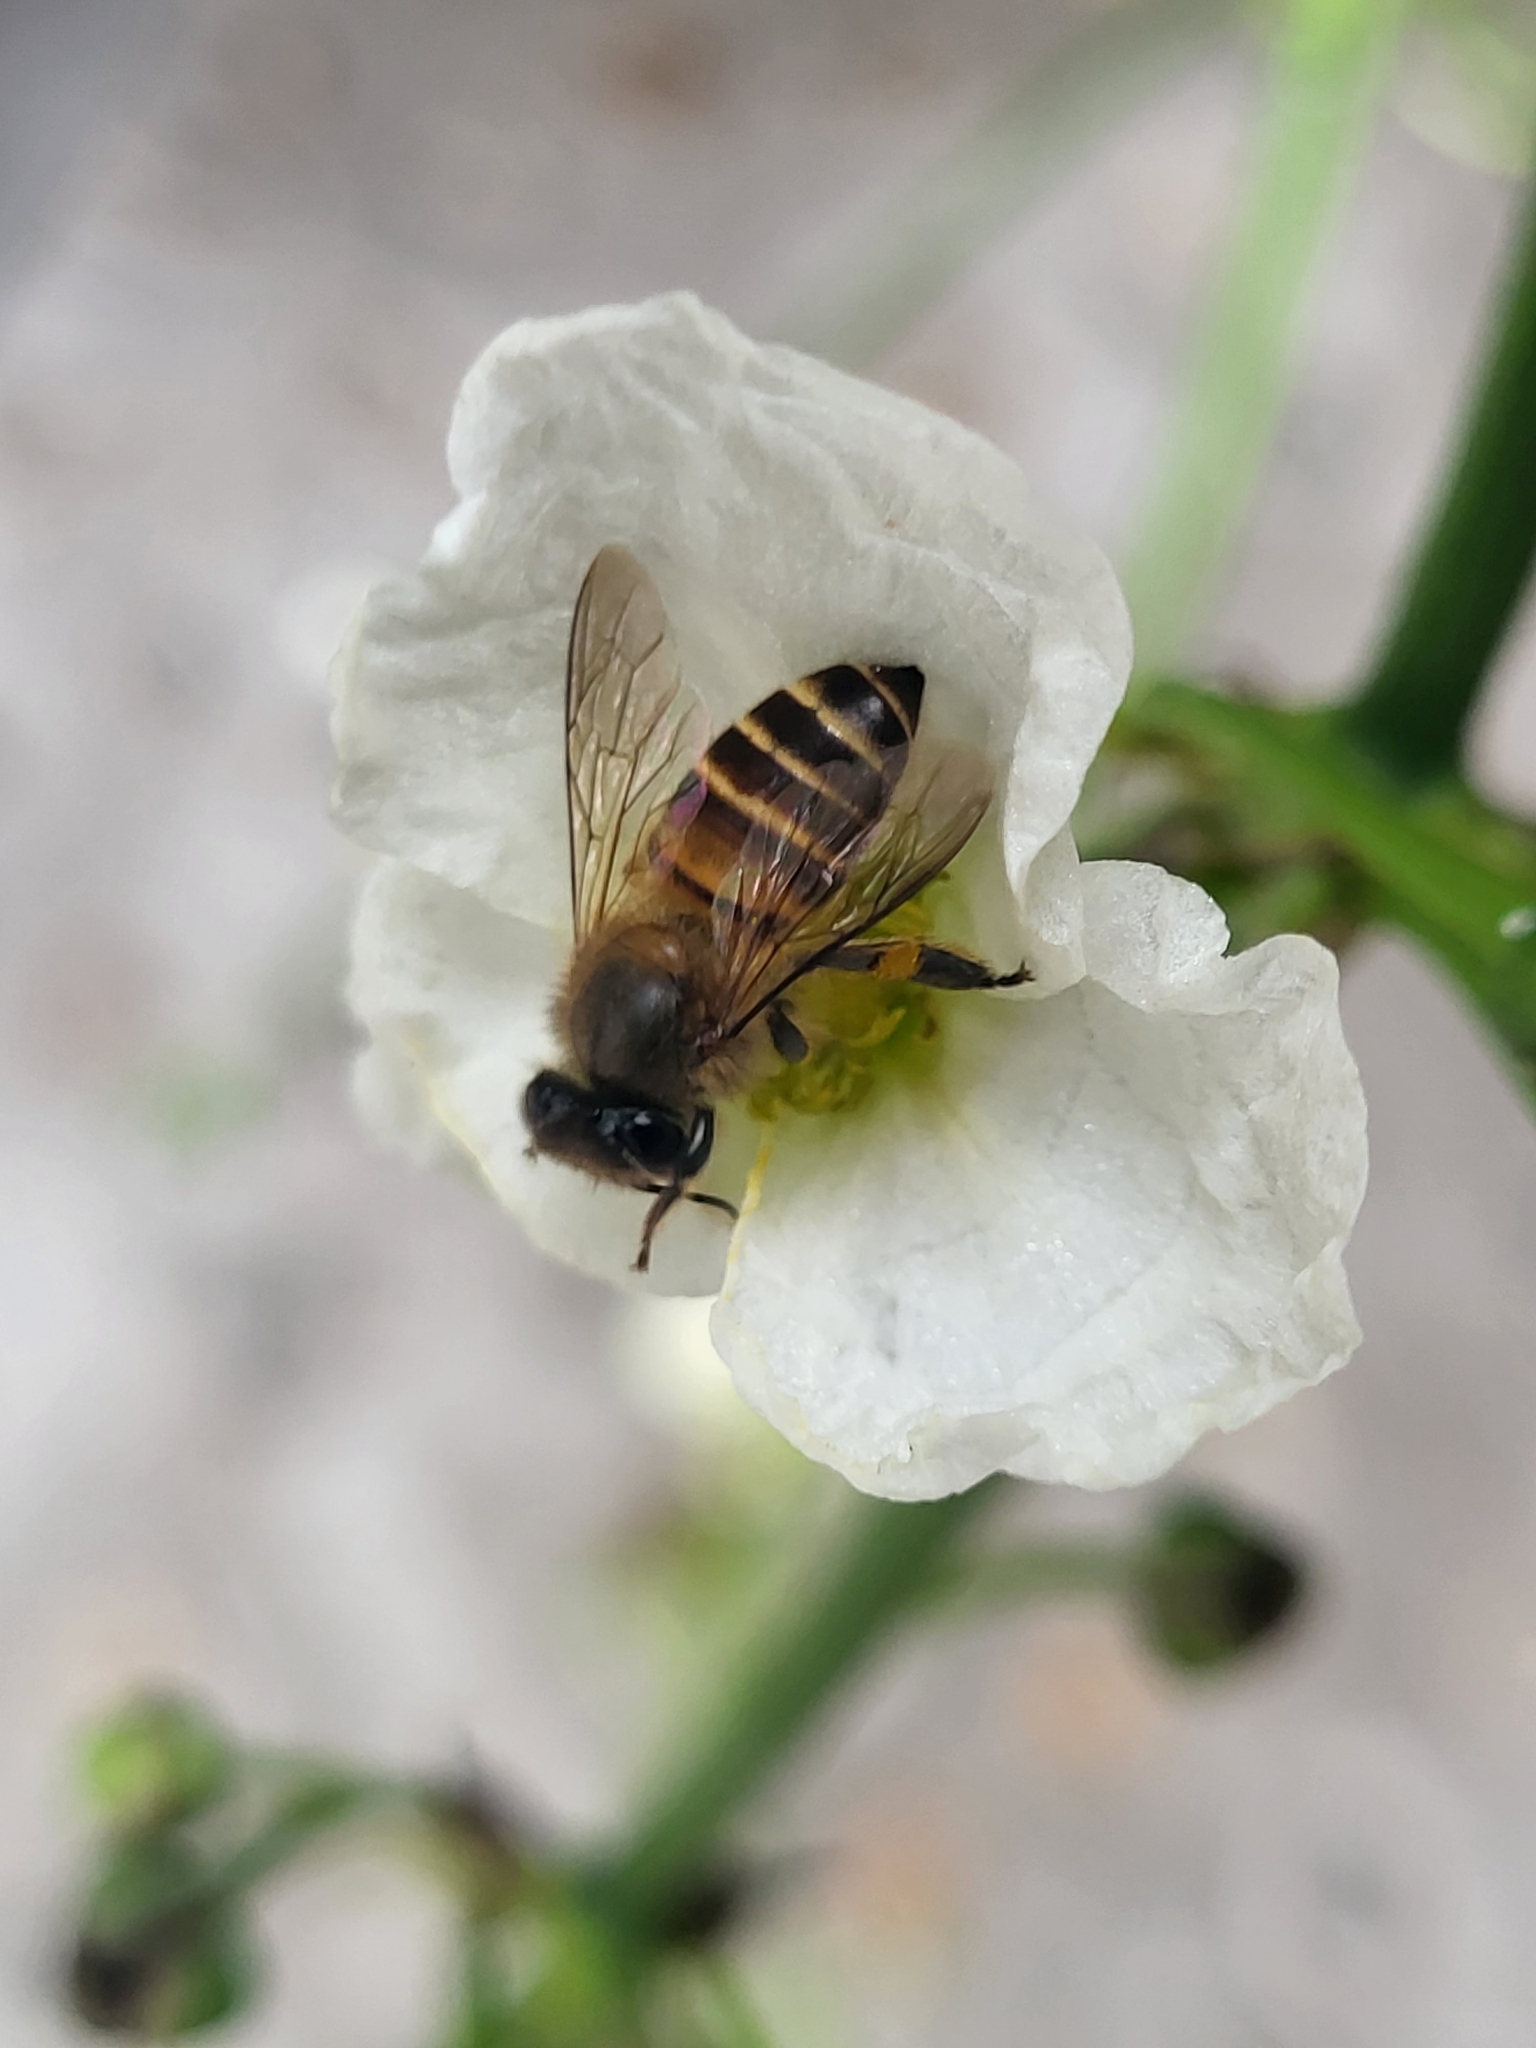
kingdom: Animalia
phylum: Arthropoda
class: Insecta
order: Hymenoptera
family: Apidae
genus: Apis
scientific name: Apis cerana
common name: Honey bee
